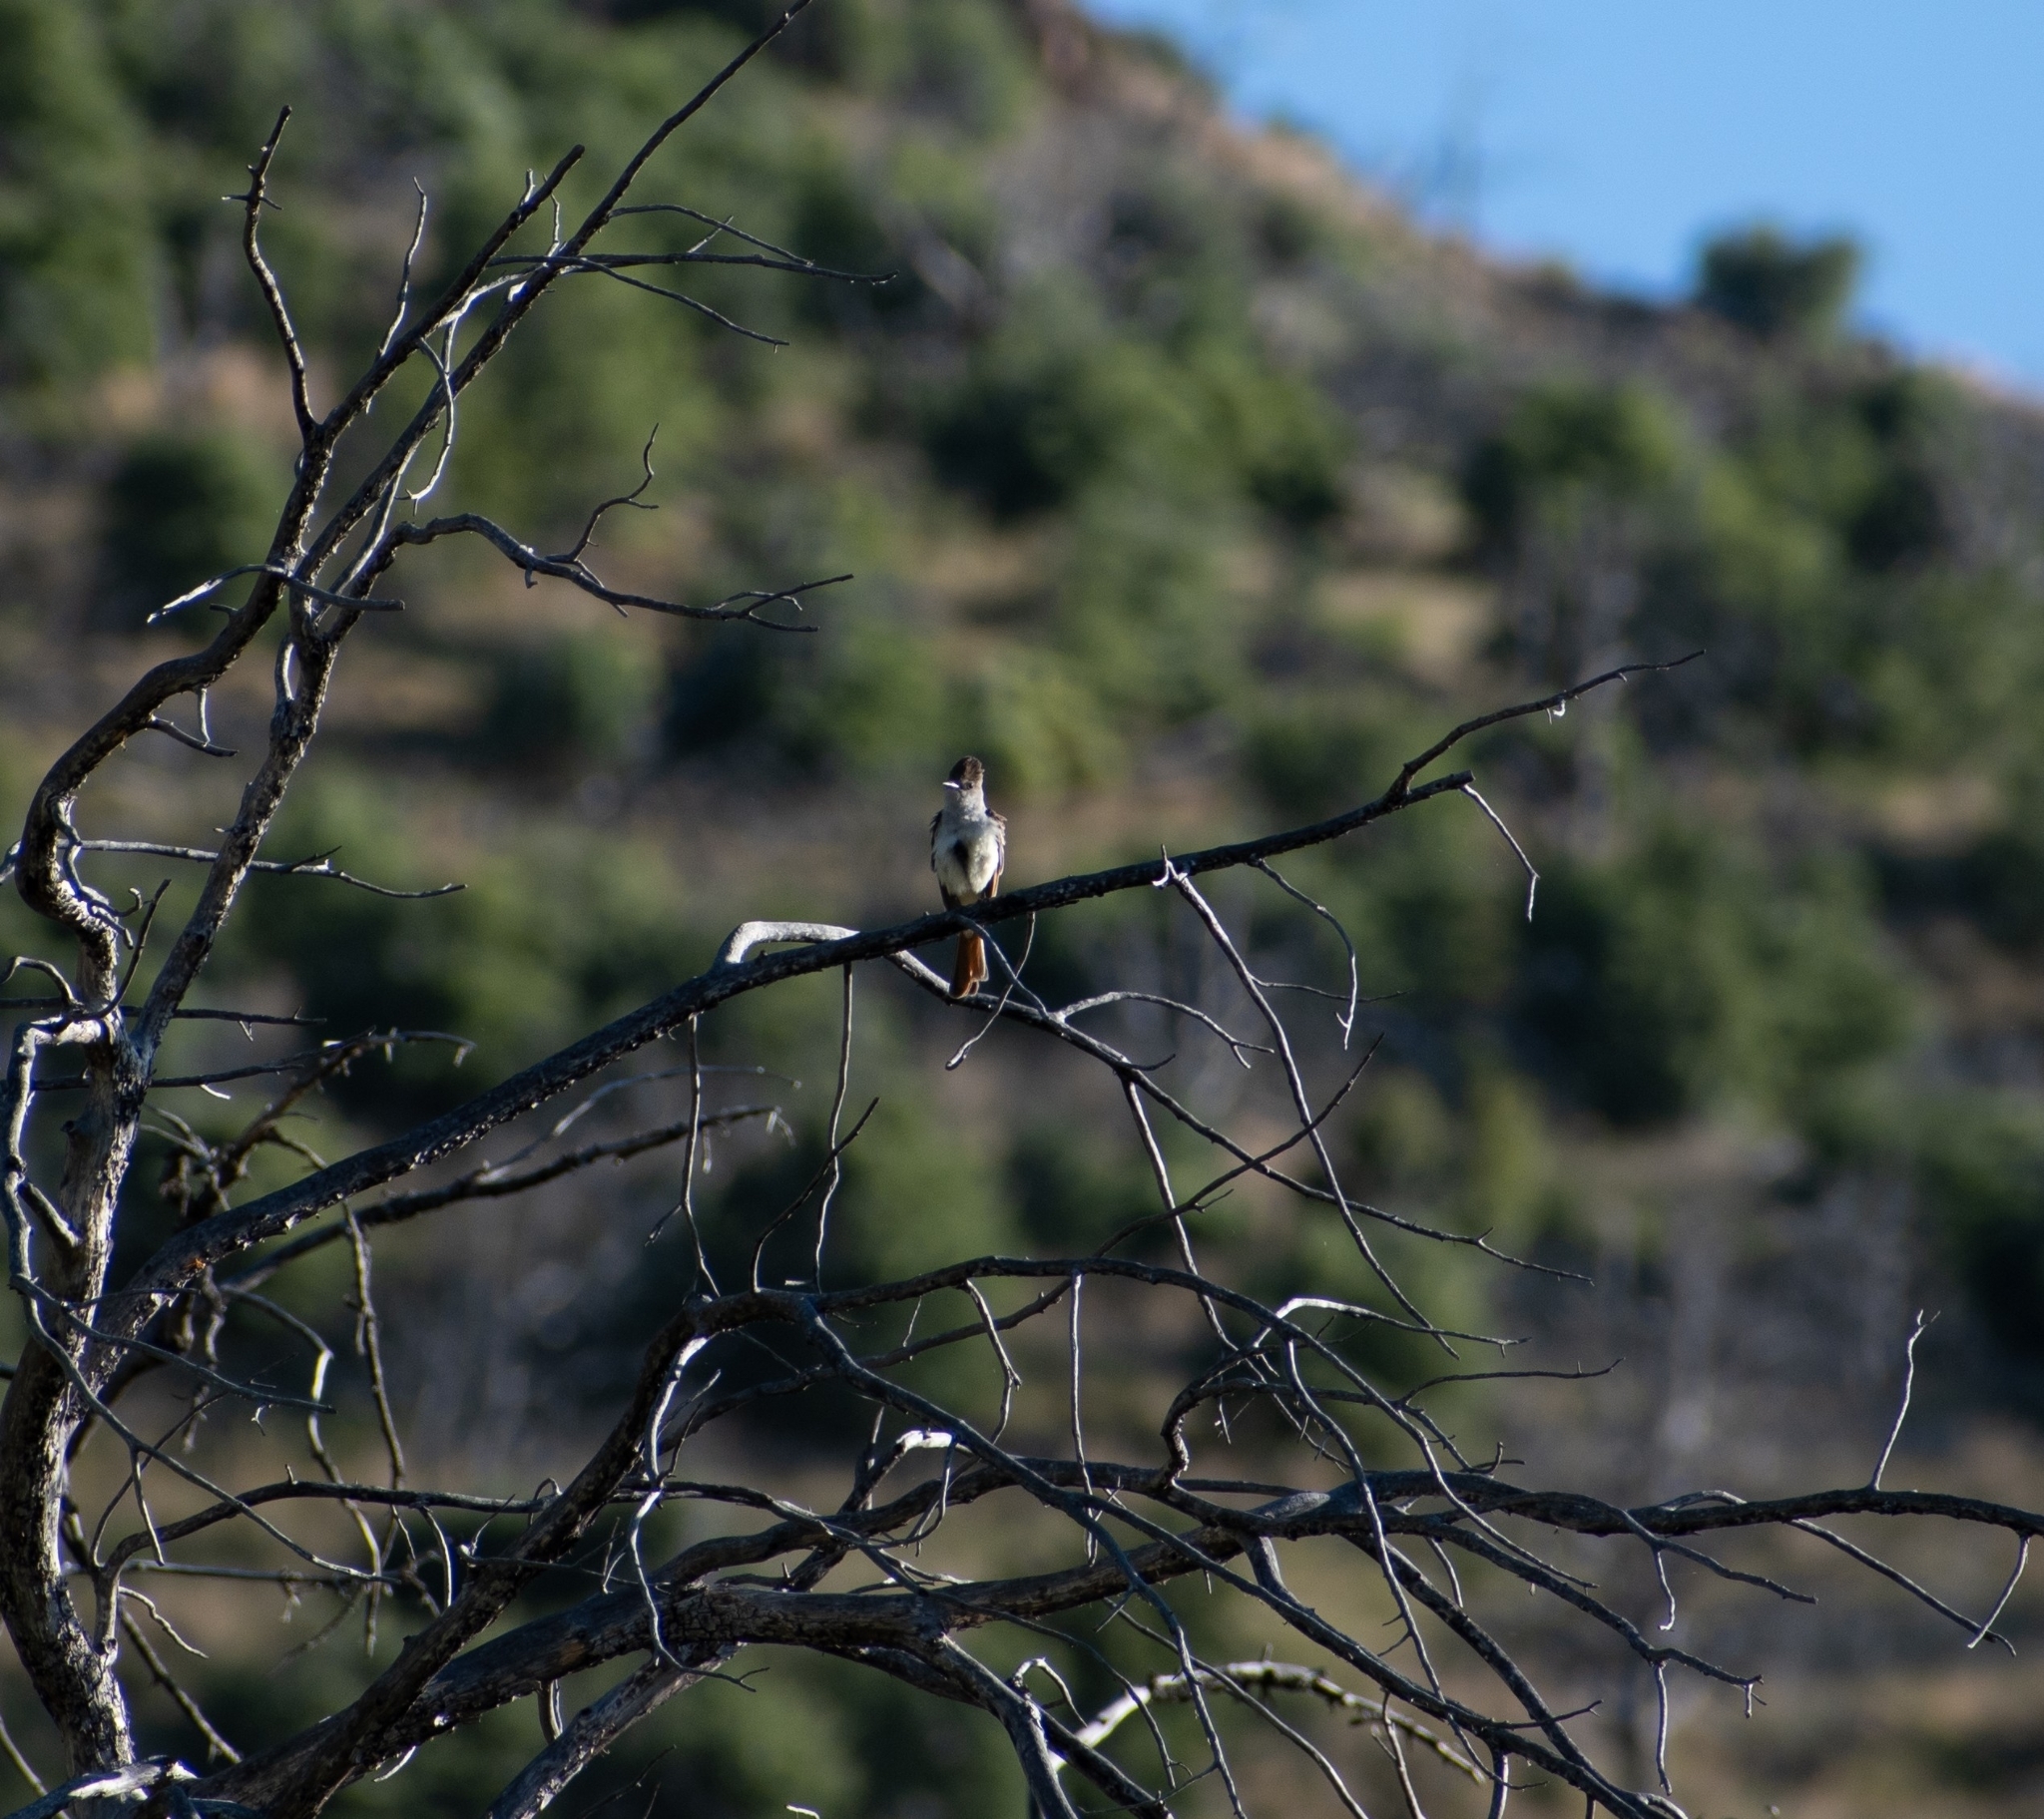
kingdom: Animalia
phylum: Chordata
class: Aves
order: Passeriformes
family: Tyrannidae
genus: Myiarchus
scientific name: Myiarchus cinerascens
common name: Ash-throated flycatcher
